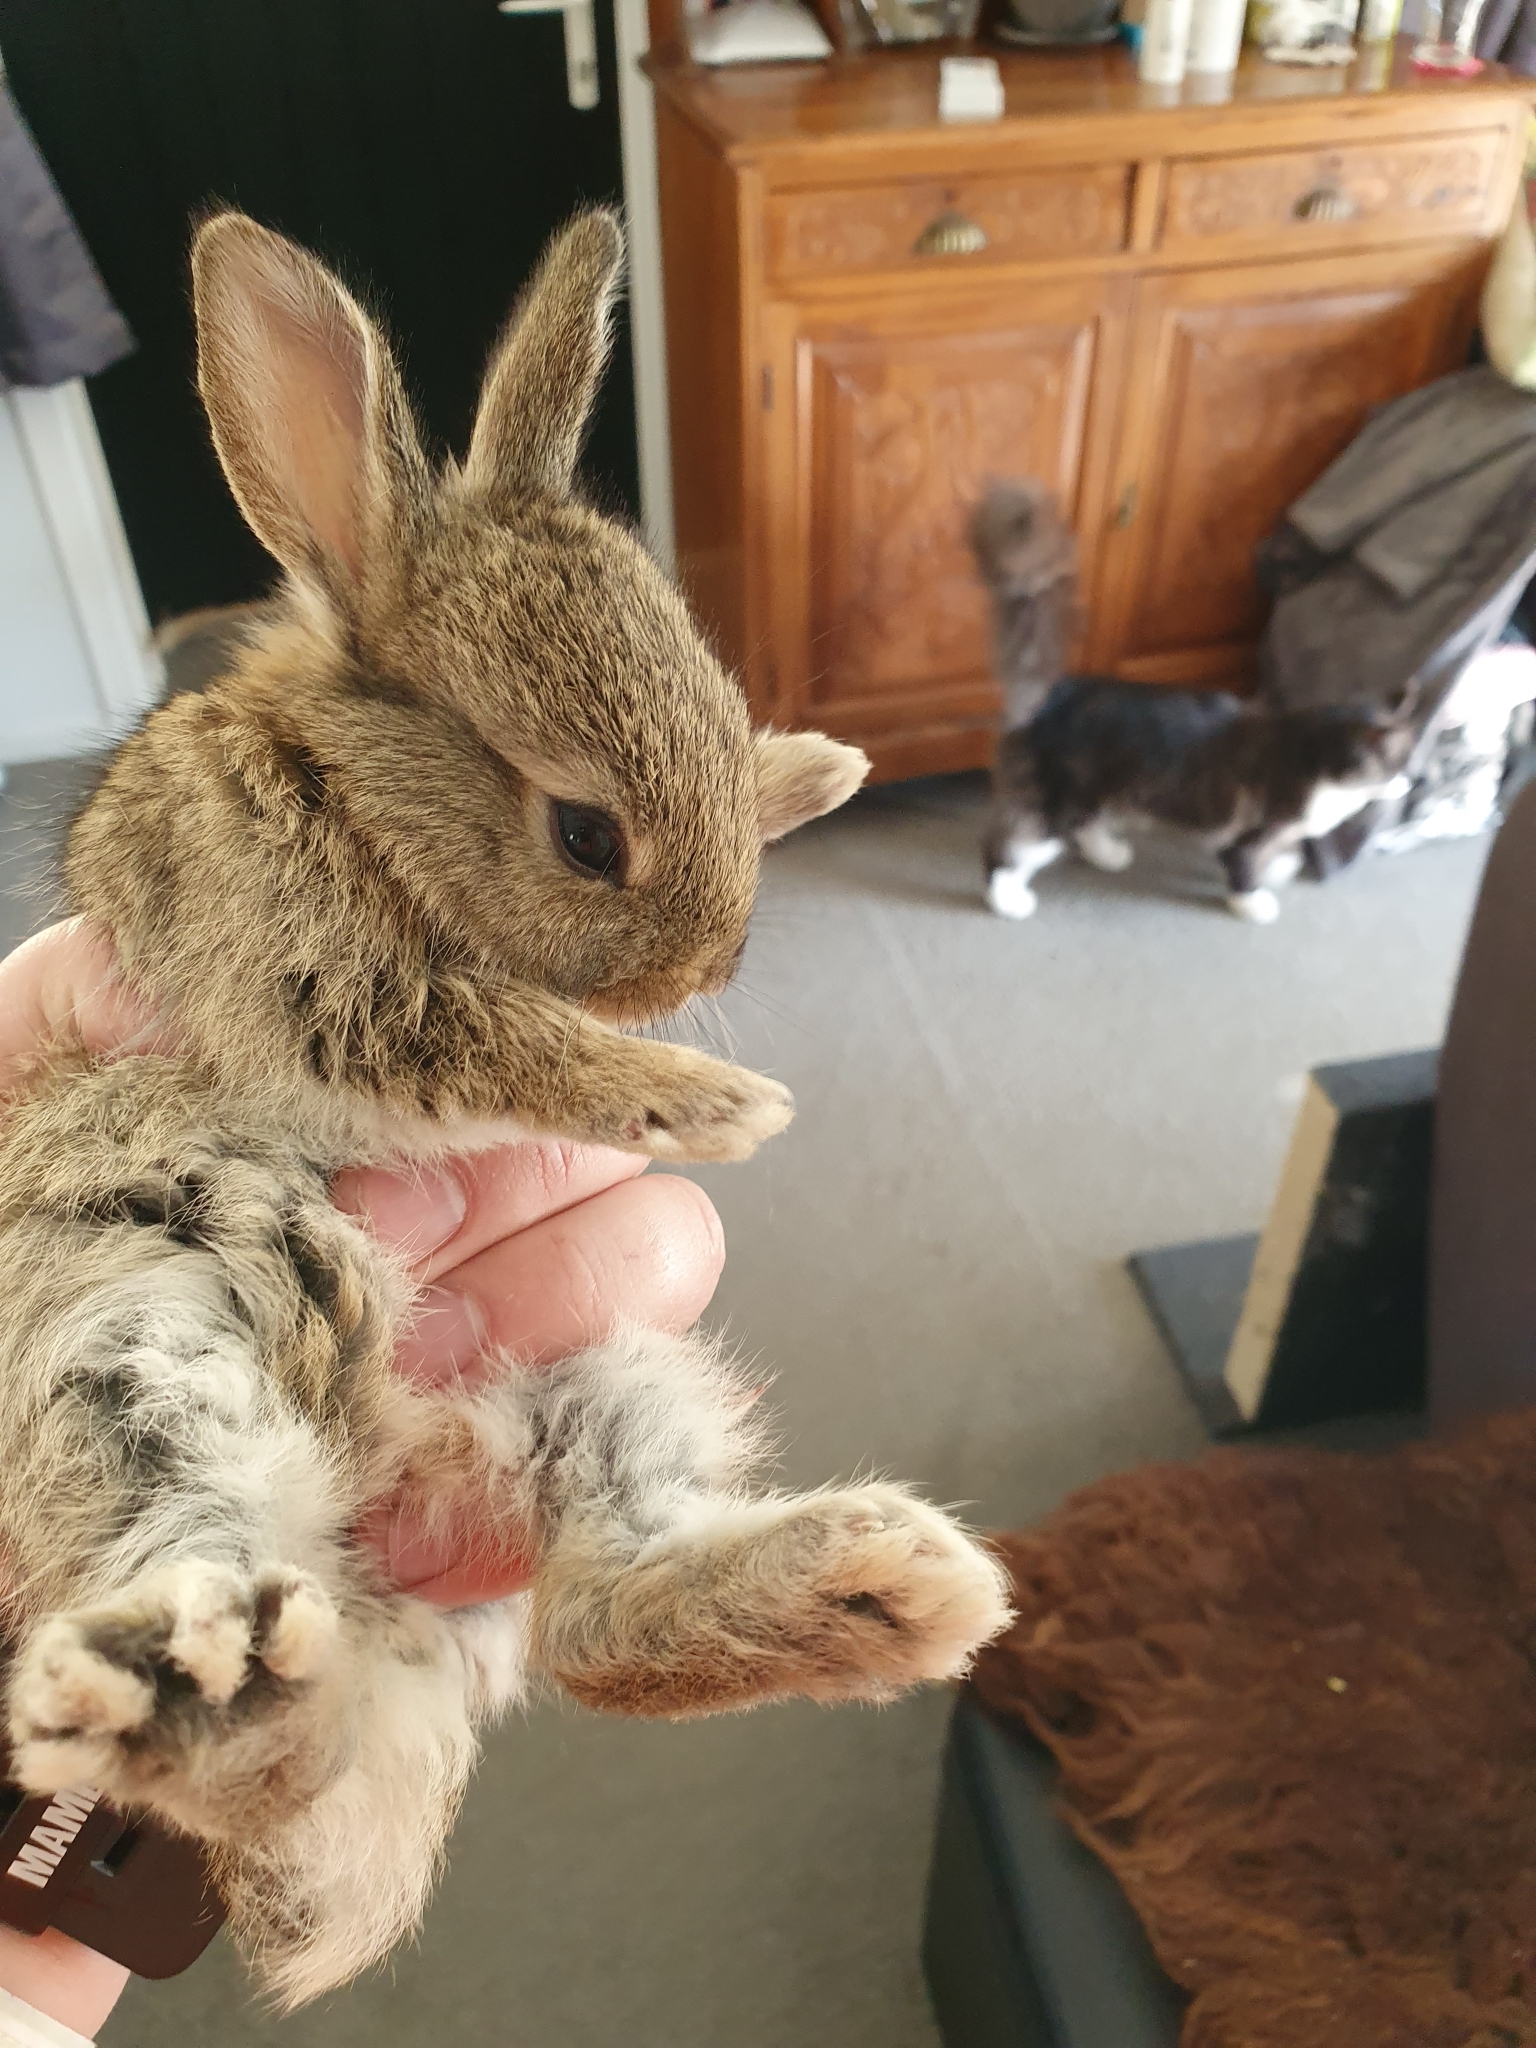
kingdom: Animalia
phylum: Chordata
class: Mammalia
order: Lagomorpha
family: Leporidae
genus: Oryctolagus
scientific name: Oryctolagus cuniculus
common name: European rabbit
